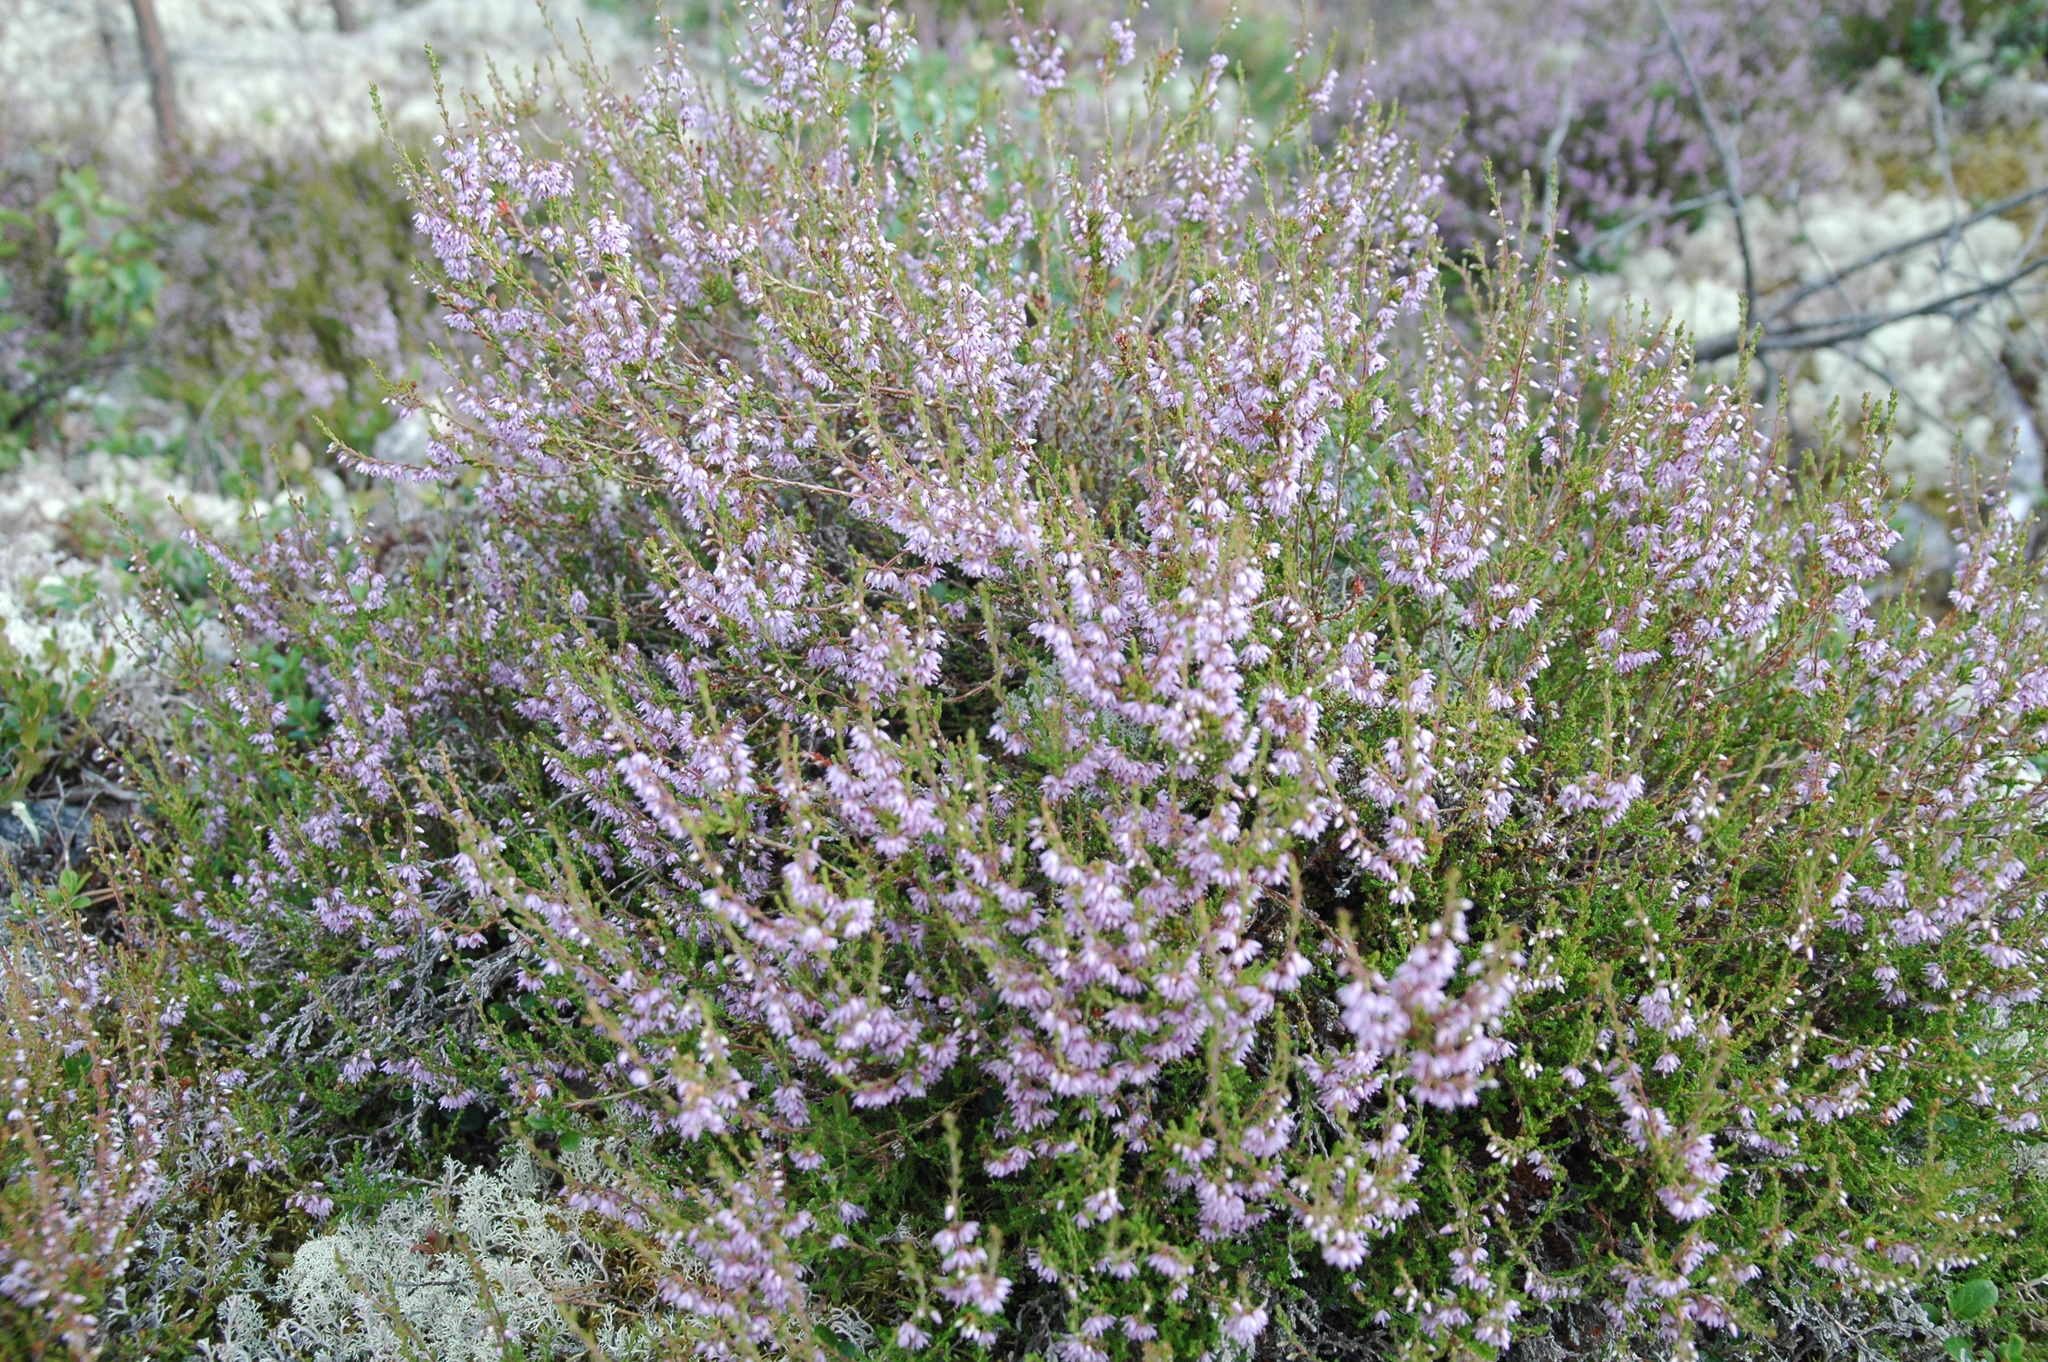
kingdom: Plantae
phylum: Tracheophyta
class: Magnoliopsida
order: Ericales
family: Ericaceae
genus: Calluna
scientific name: Calluna vulgaris
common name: Heather
